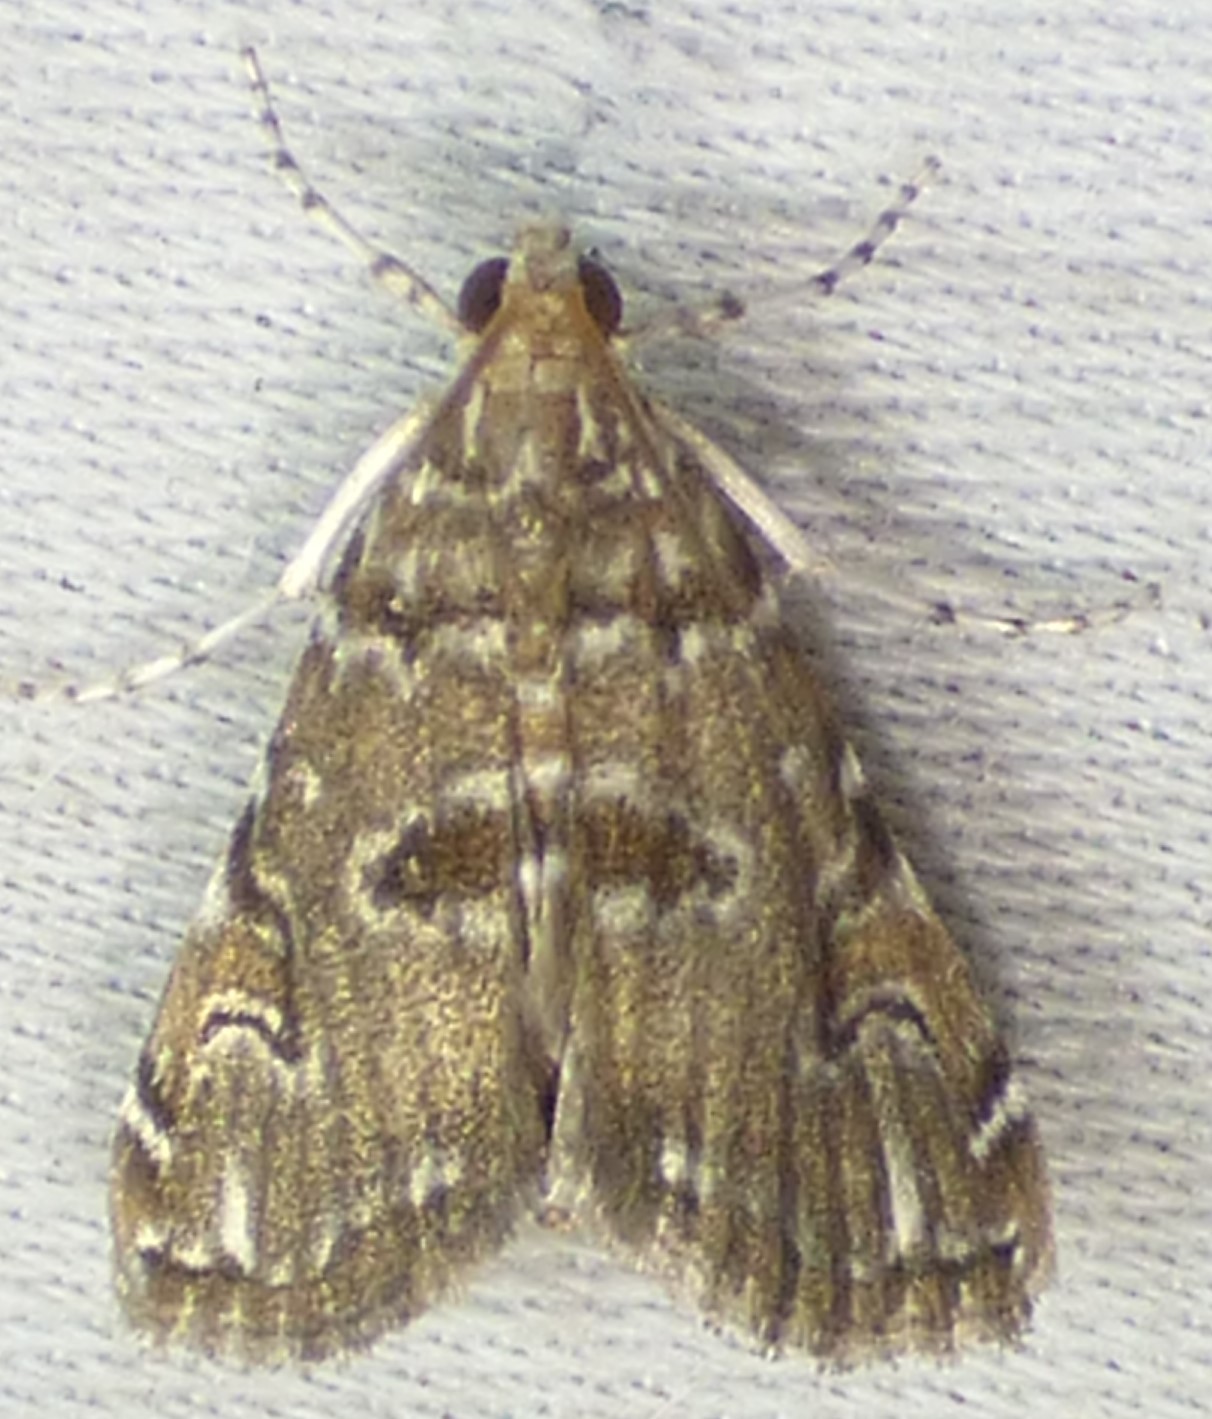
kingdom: Animalia
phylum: Arthropoda
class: Insecta
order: Lepidoptera
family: Crambidae
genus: Elophila
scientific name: Elophila gyralis
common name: Waterlily borer moth
